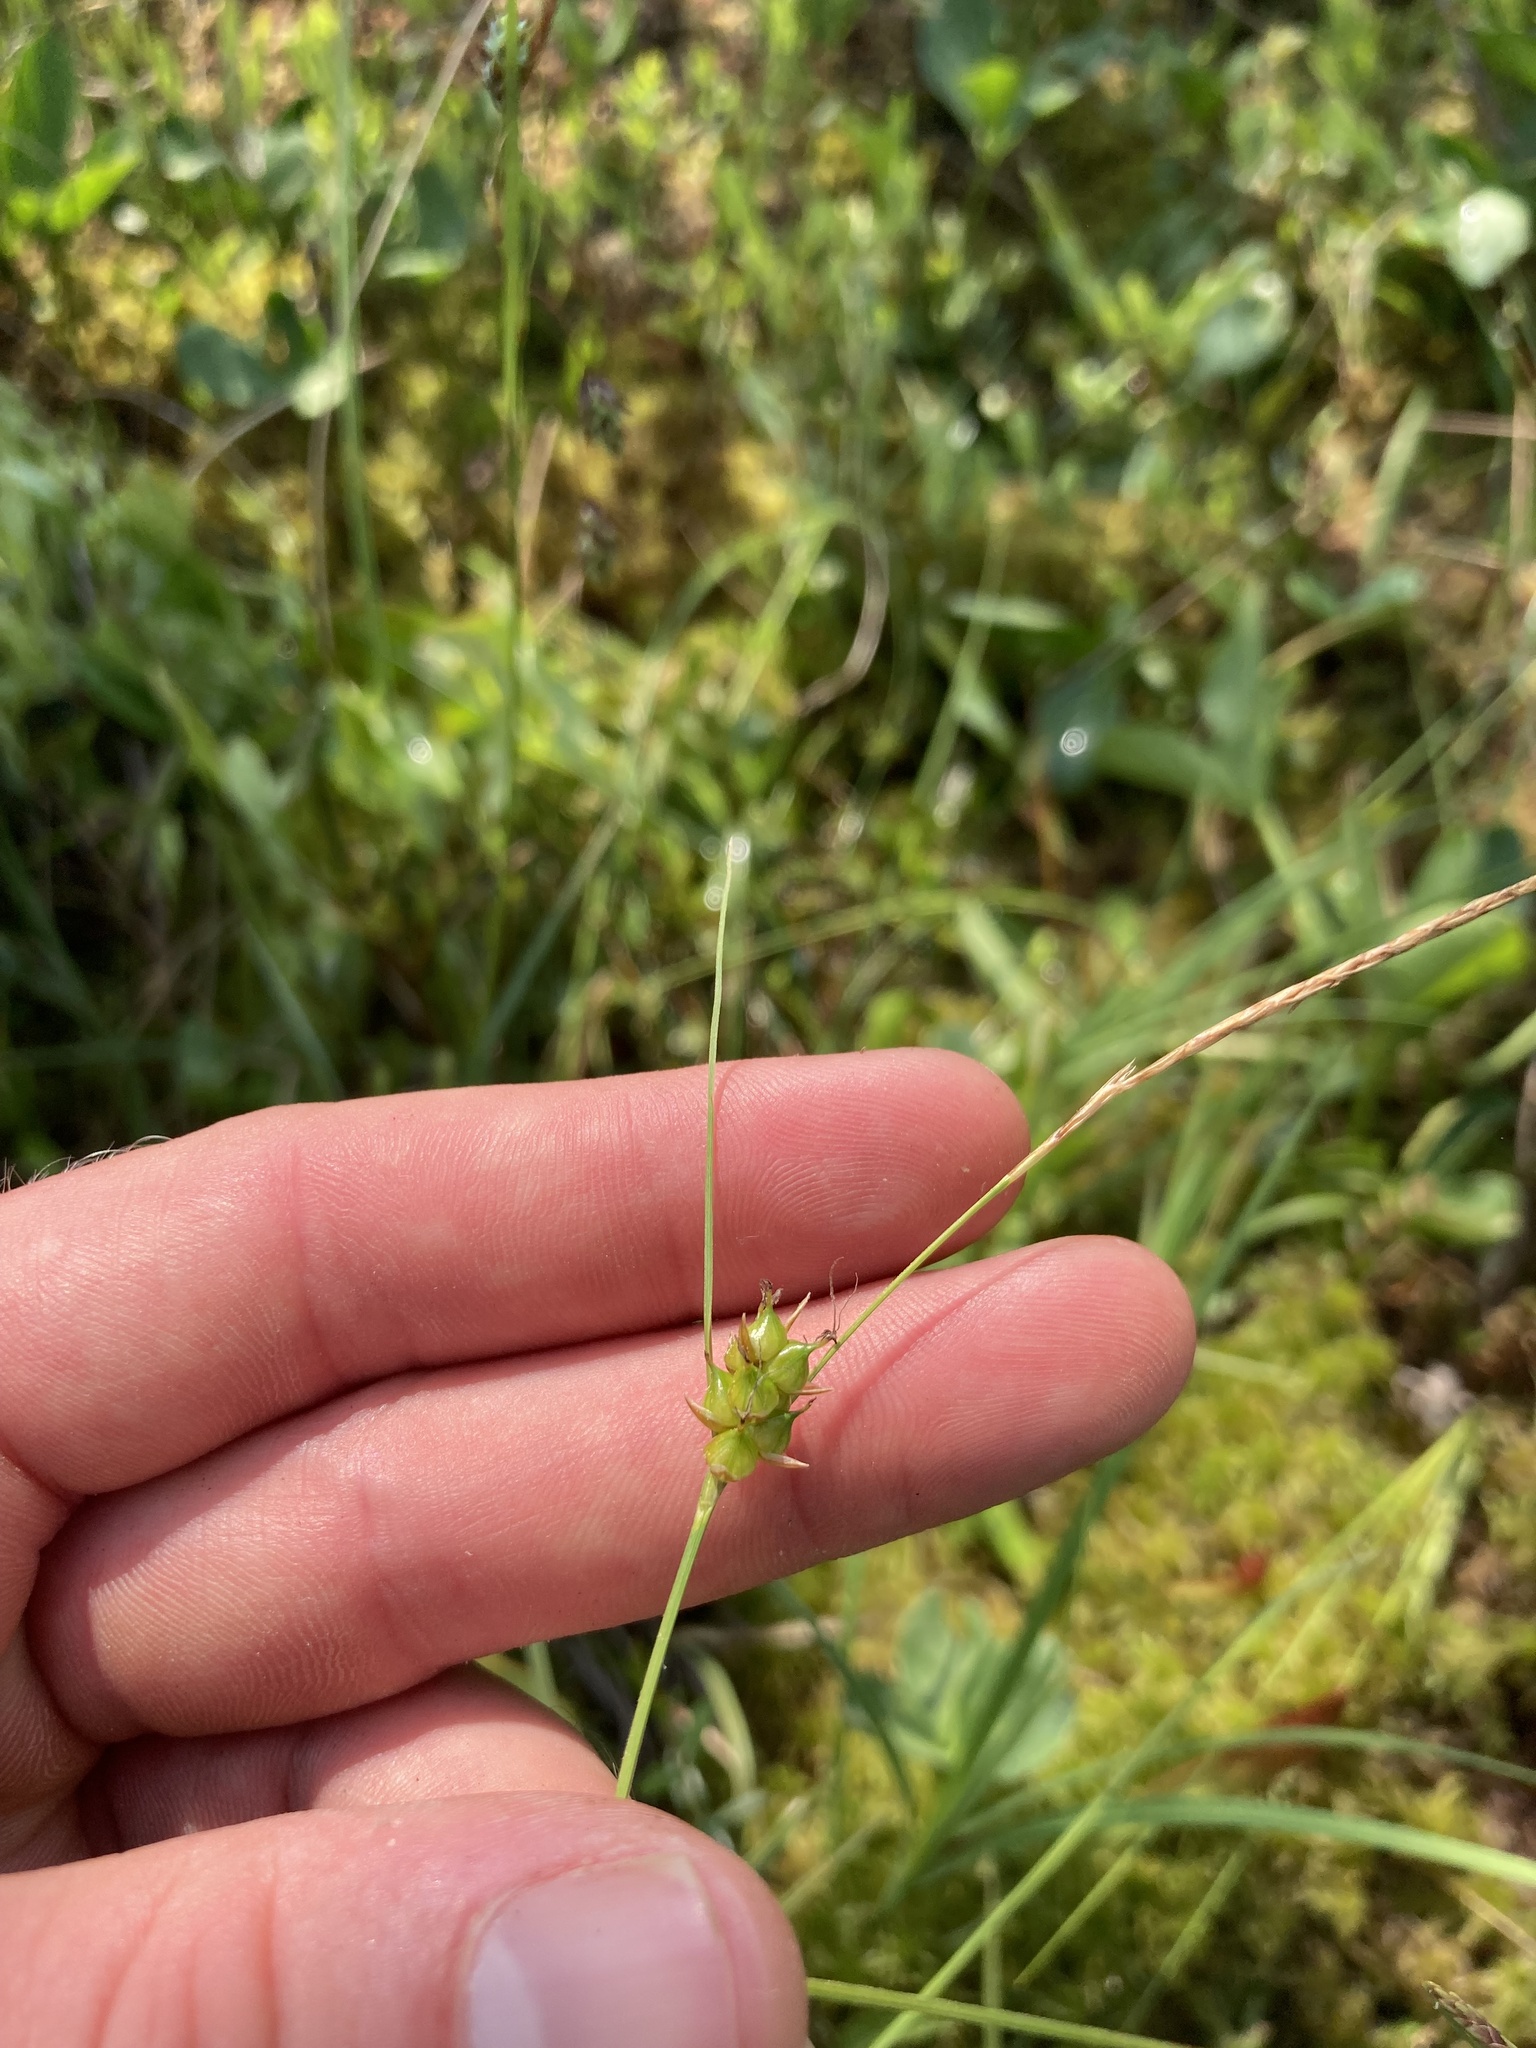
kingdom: Plantae
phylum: Tracheophyta
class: Liliopsida
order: Poales
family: Cyperaceae
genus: Carex
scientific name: Carex oligosperma
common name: Few-seed sedge
